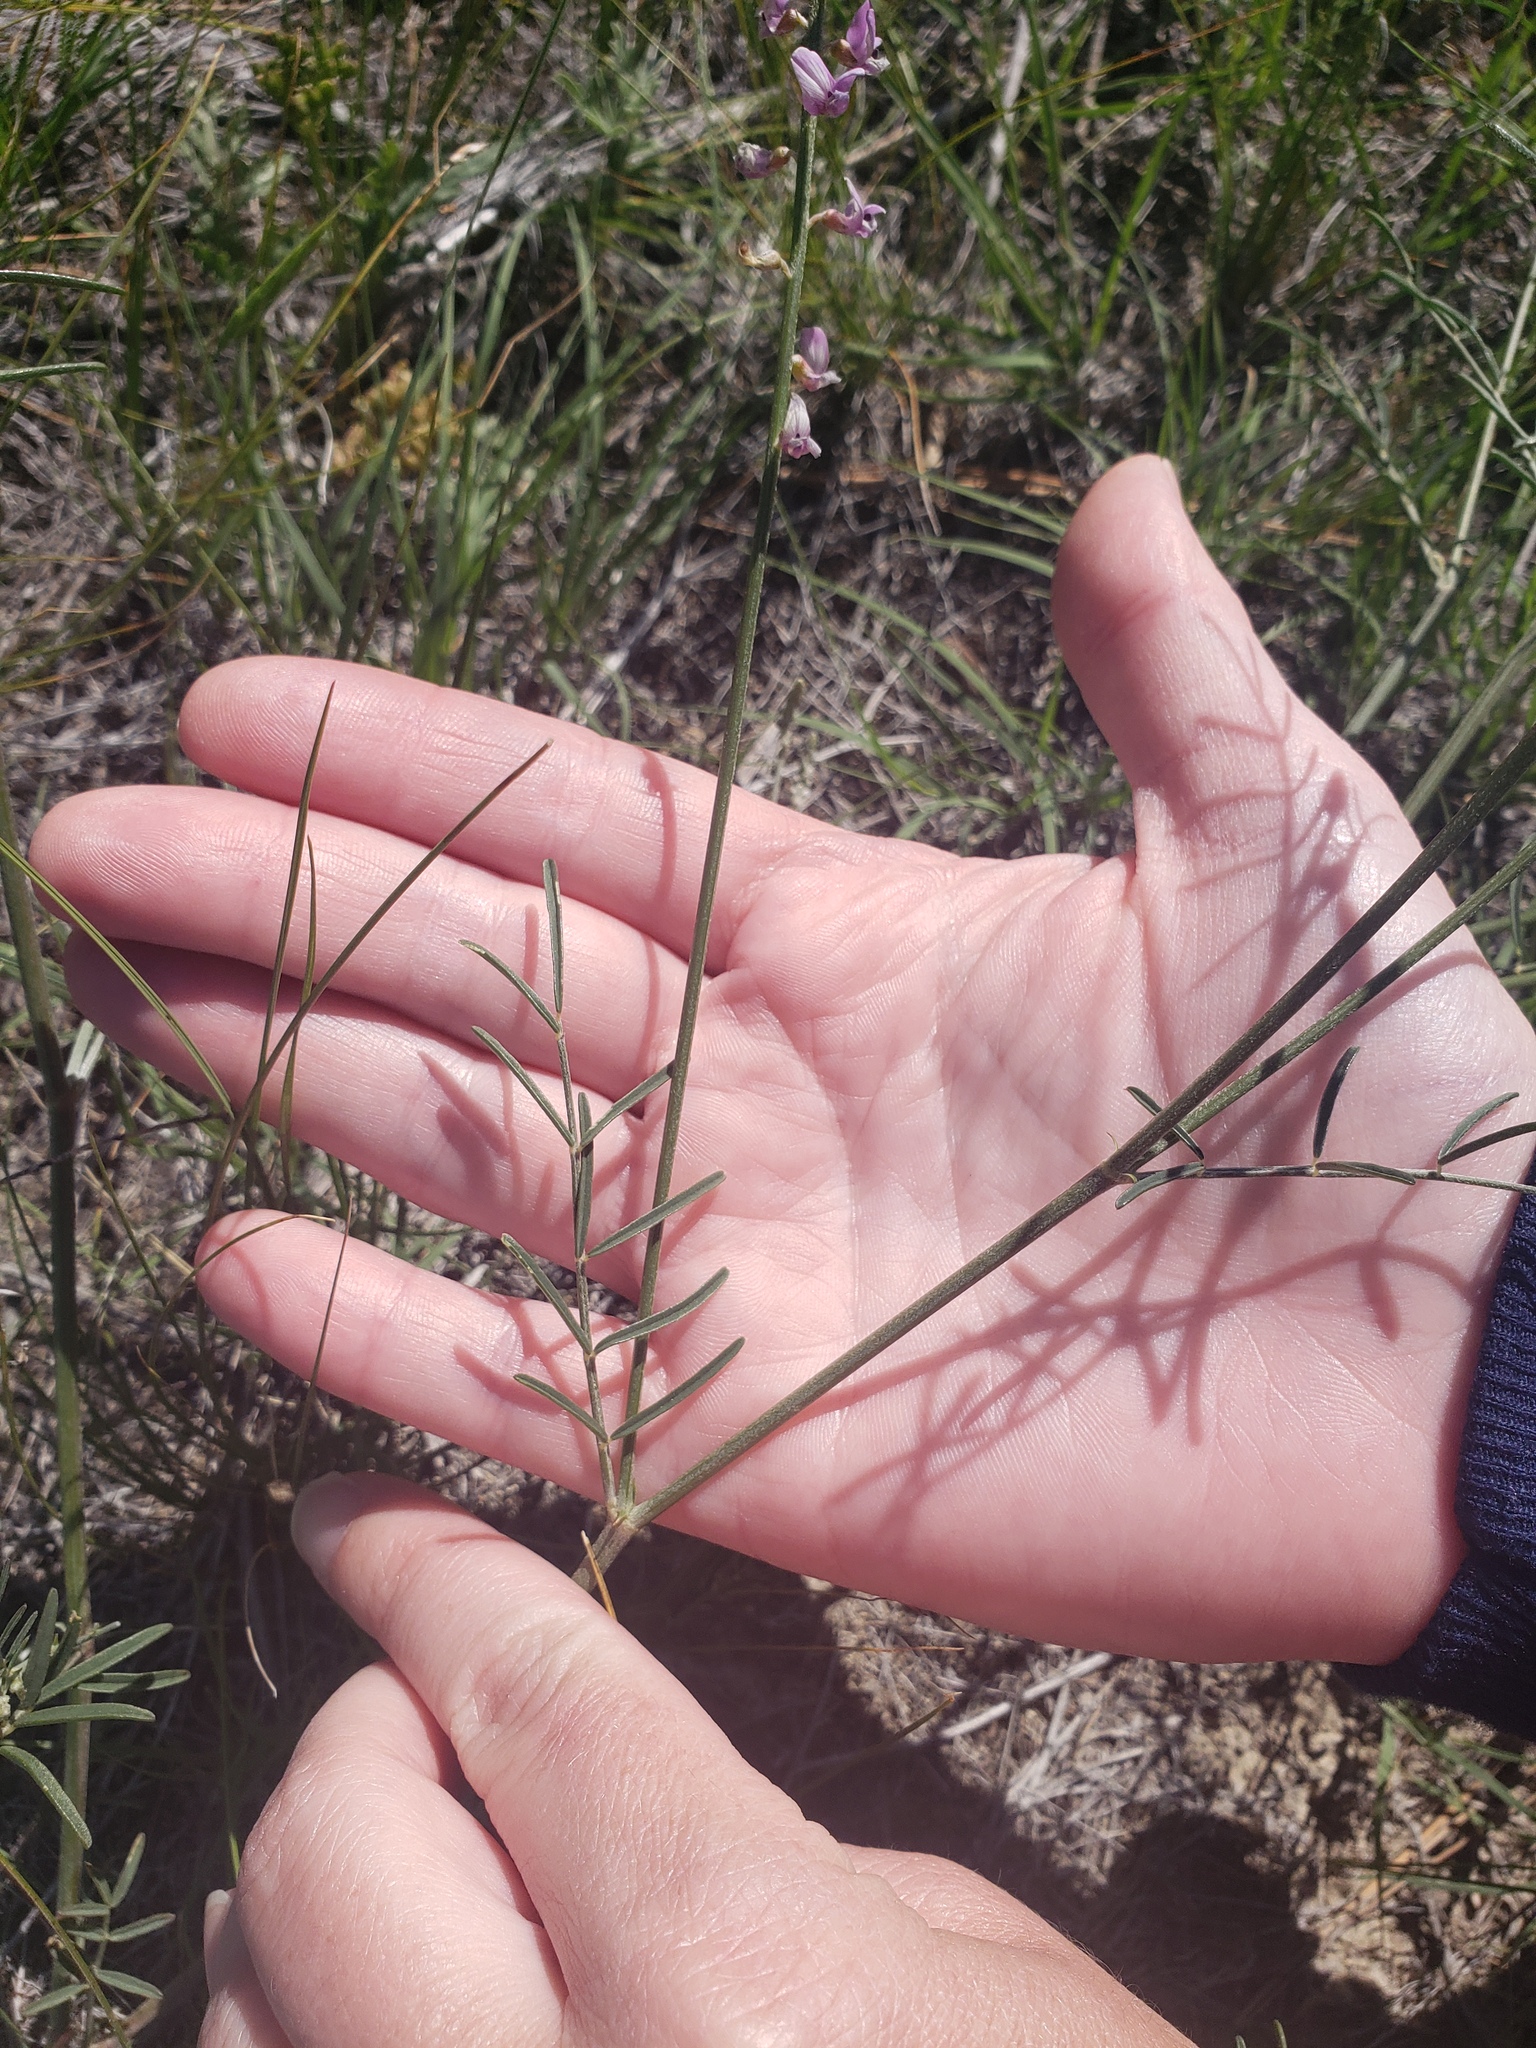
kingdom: Plantae
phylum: Tracheophyta
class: Magnoliopsida
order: Fabales
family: Fabaceae
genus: Astragalus
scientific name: Astragalus gracilis
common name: Slender milk-vetch
